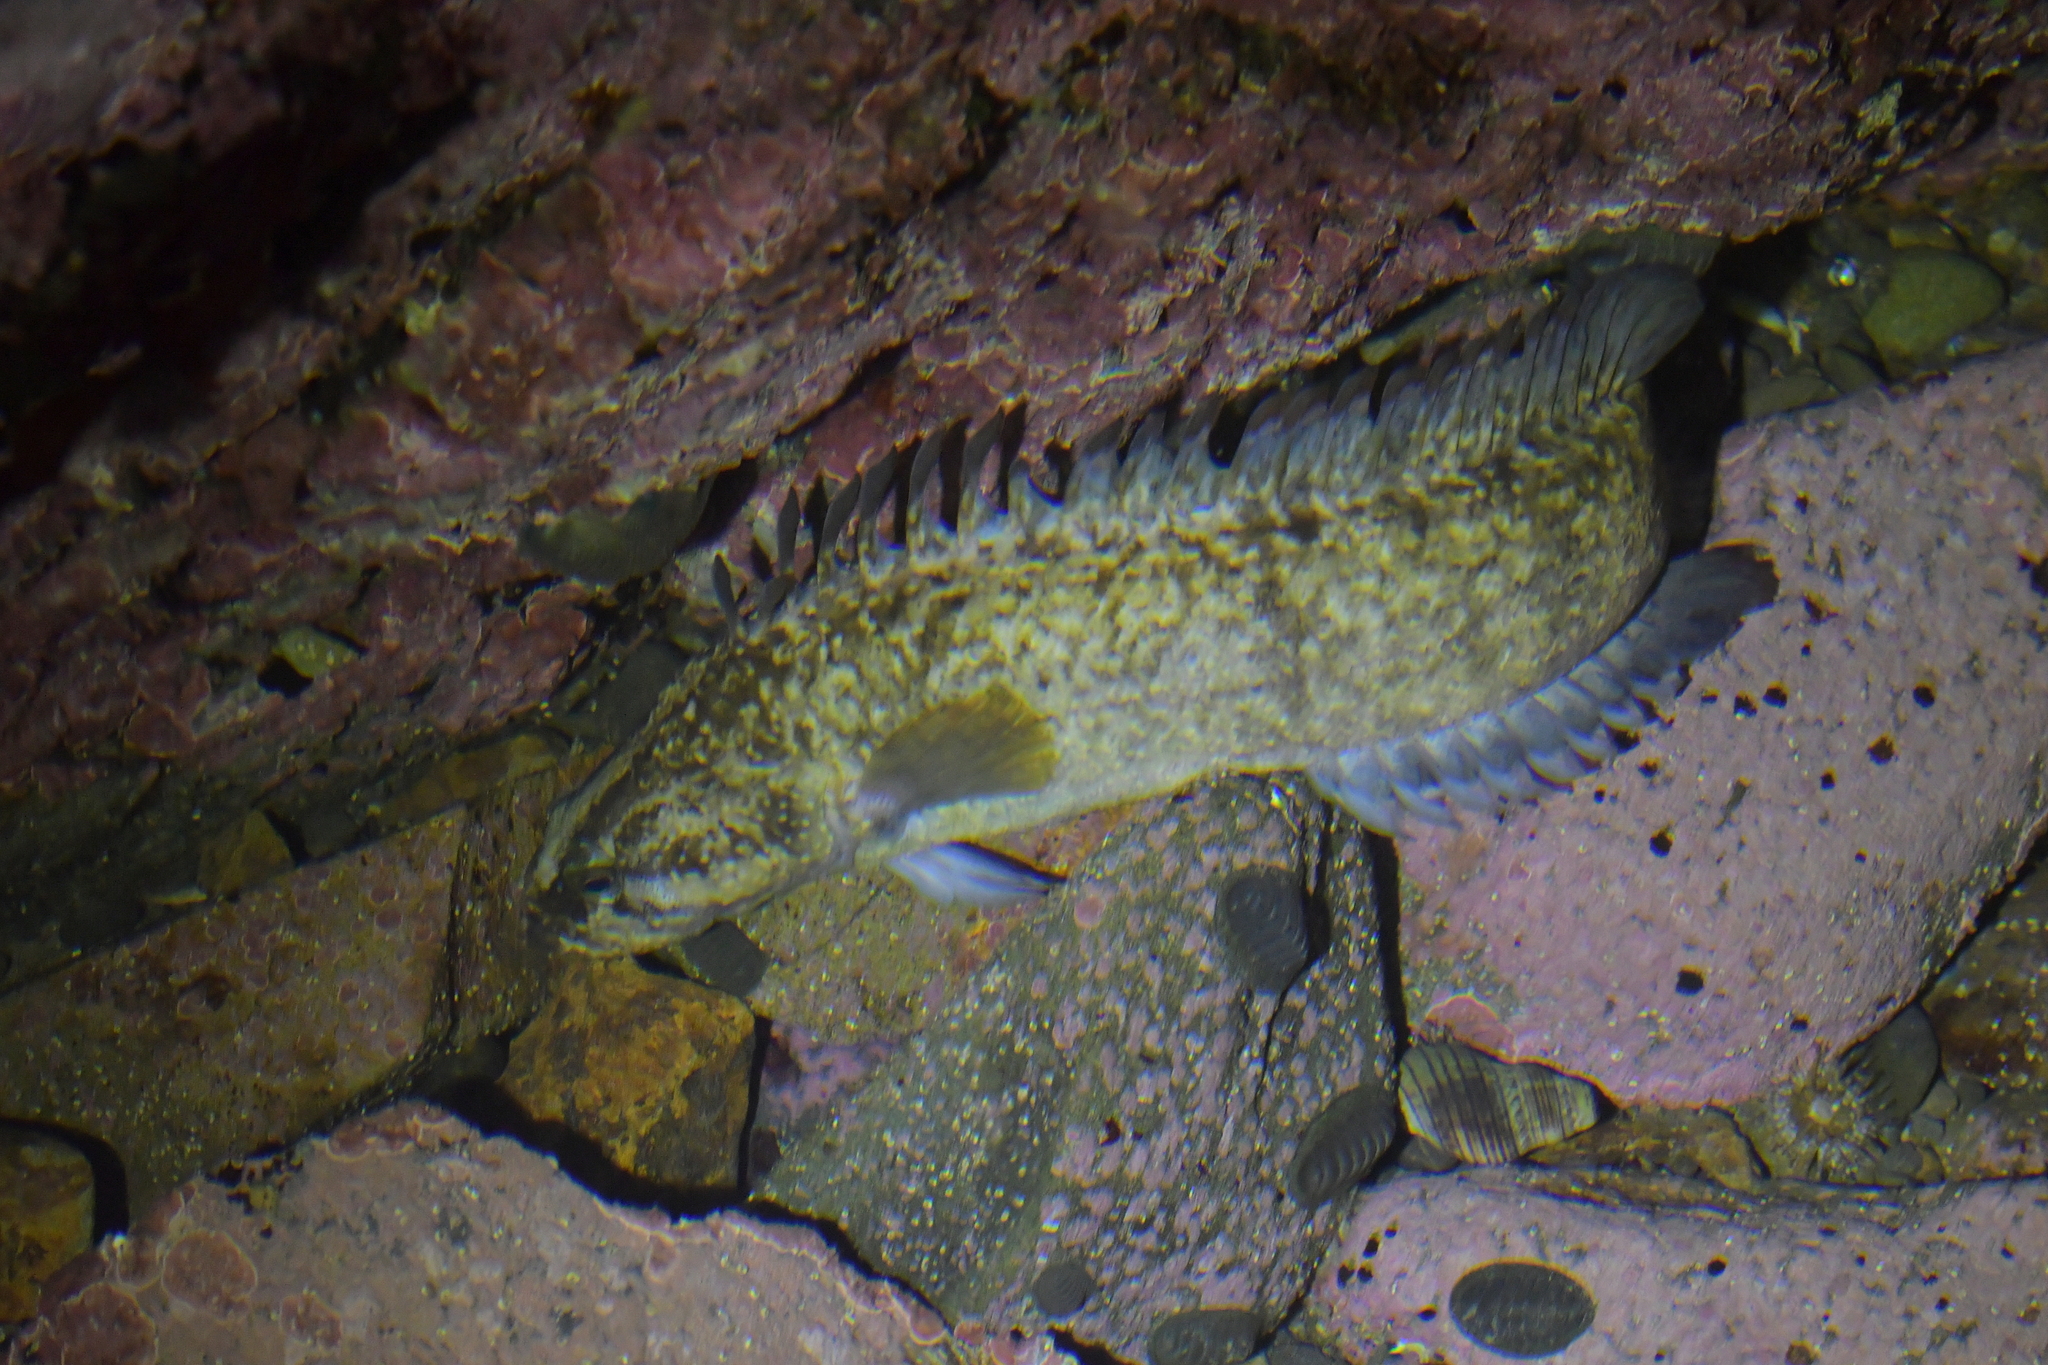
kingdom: Animalia
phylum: Chordata
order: Perciformes
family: Plesiopidae
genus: Acanthoclinus
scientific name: Acanthoclinus fuscus
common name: Olive rockfish
